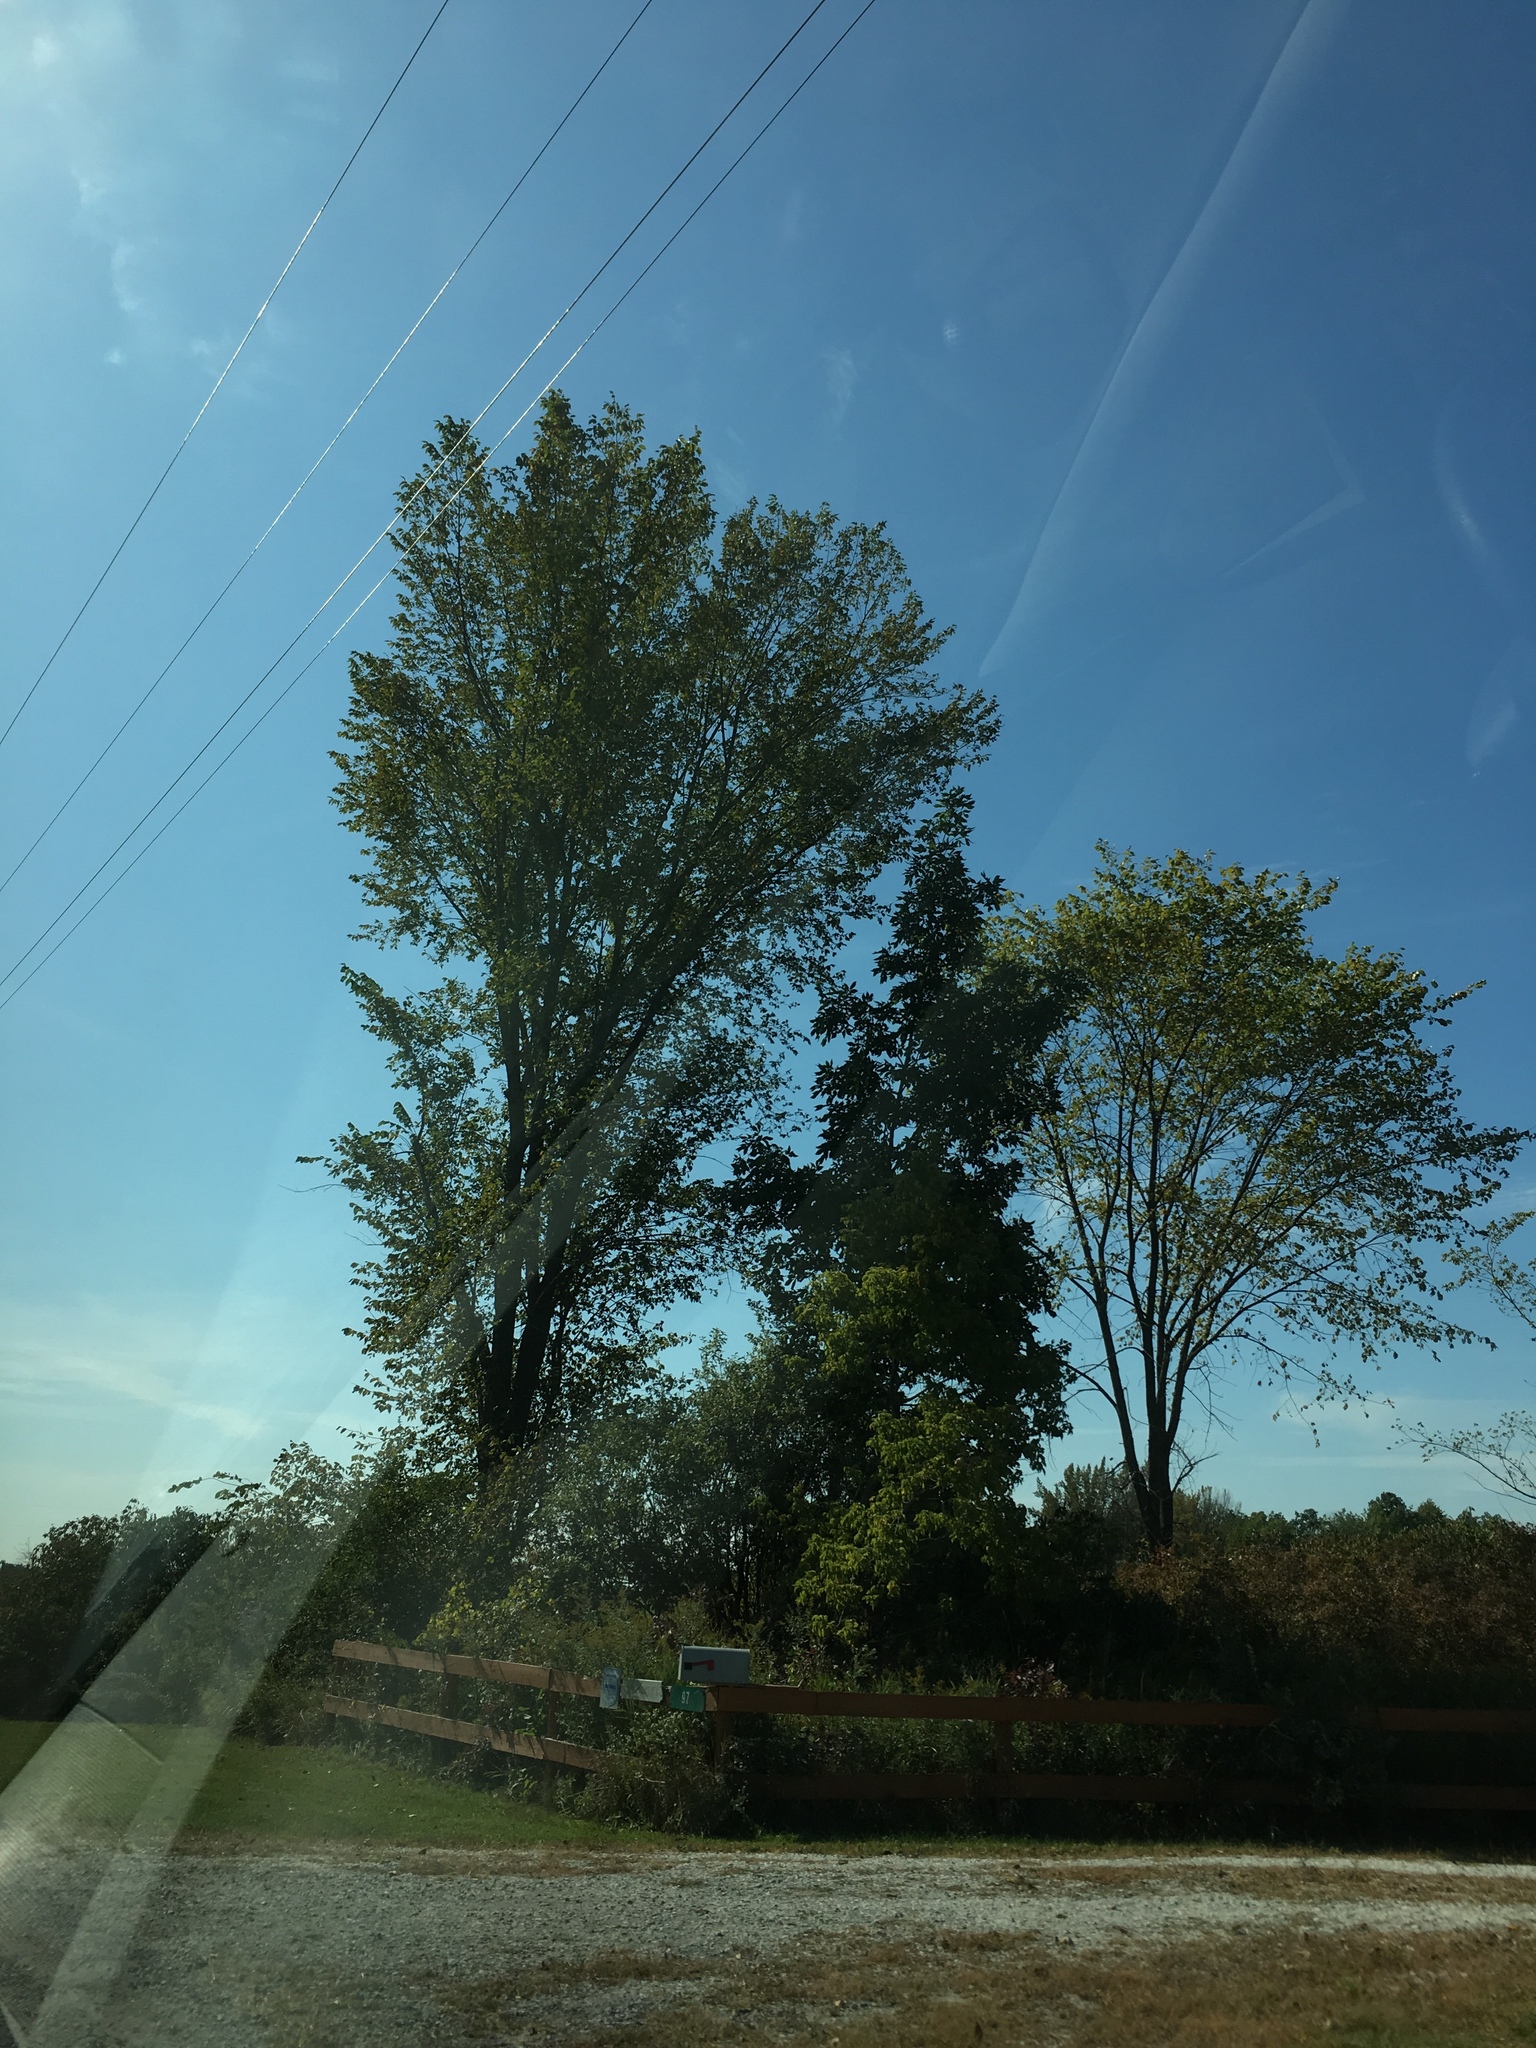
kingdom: Plantae
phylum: Tracheophyta
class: Magnoliopsida
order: Rosales
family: Ulmaceae
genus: Ulmus
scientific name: Ulmus americana
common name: American elm
